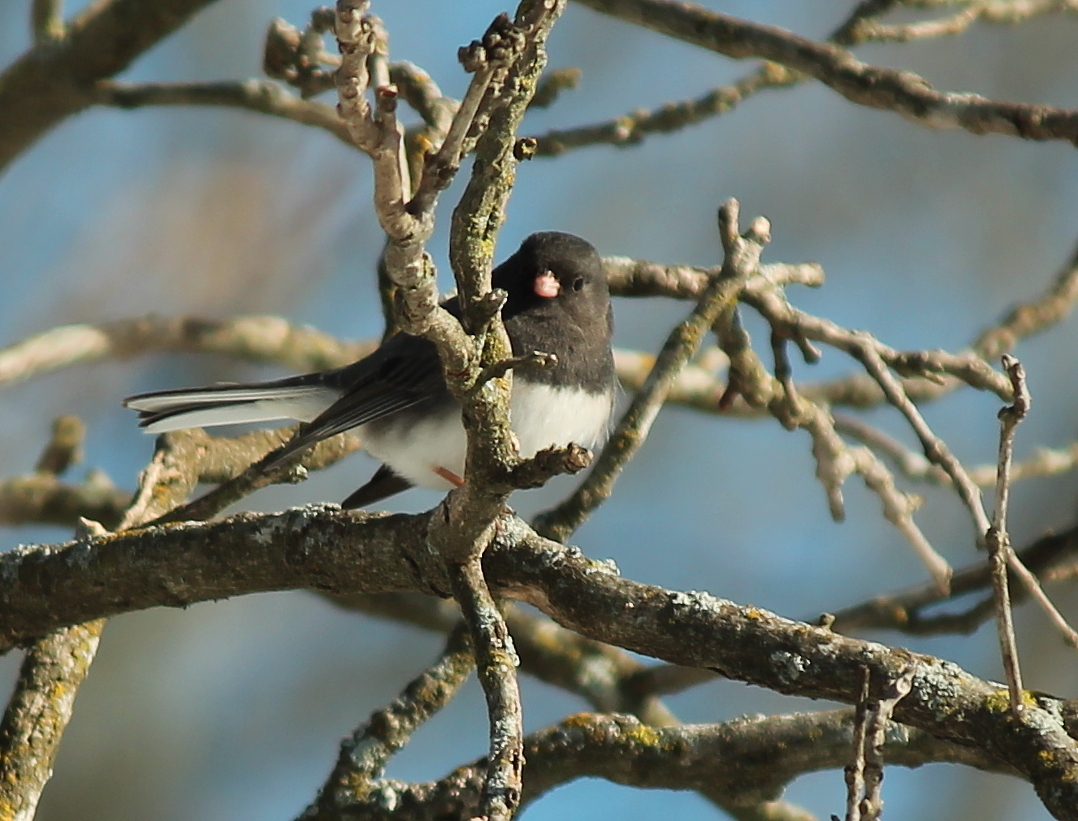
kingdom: Animalia
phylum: Chordata
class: Aves
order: Passeriformes
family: Passerellidae
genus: Junco
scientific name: Junco hyemalis
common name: Dark-eyed junco
